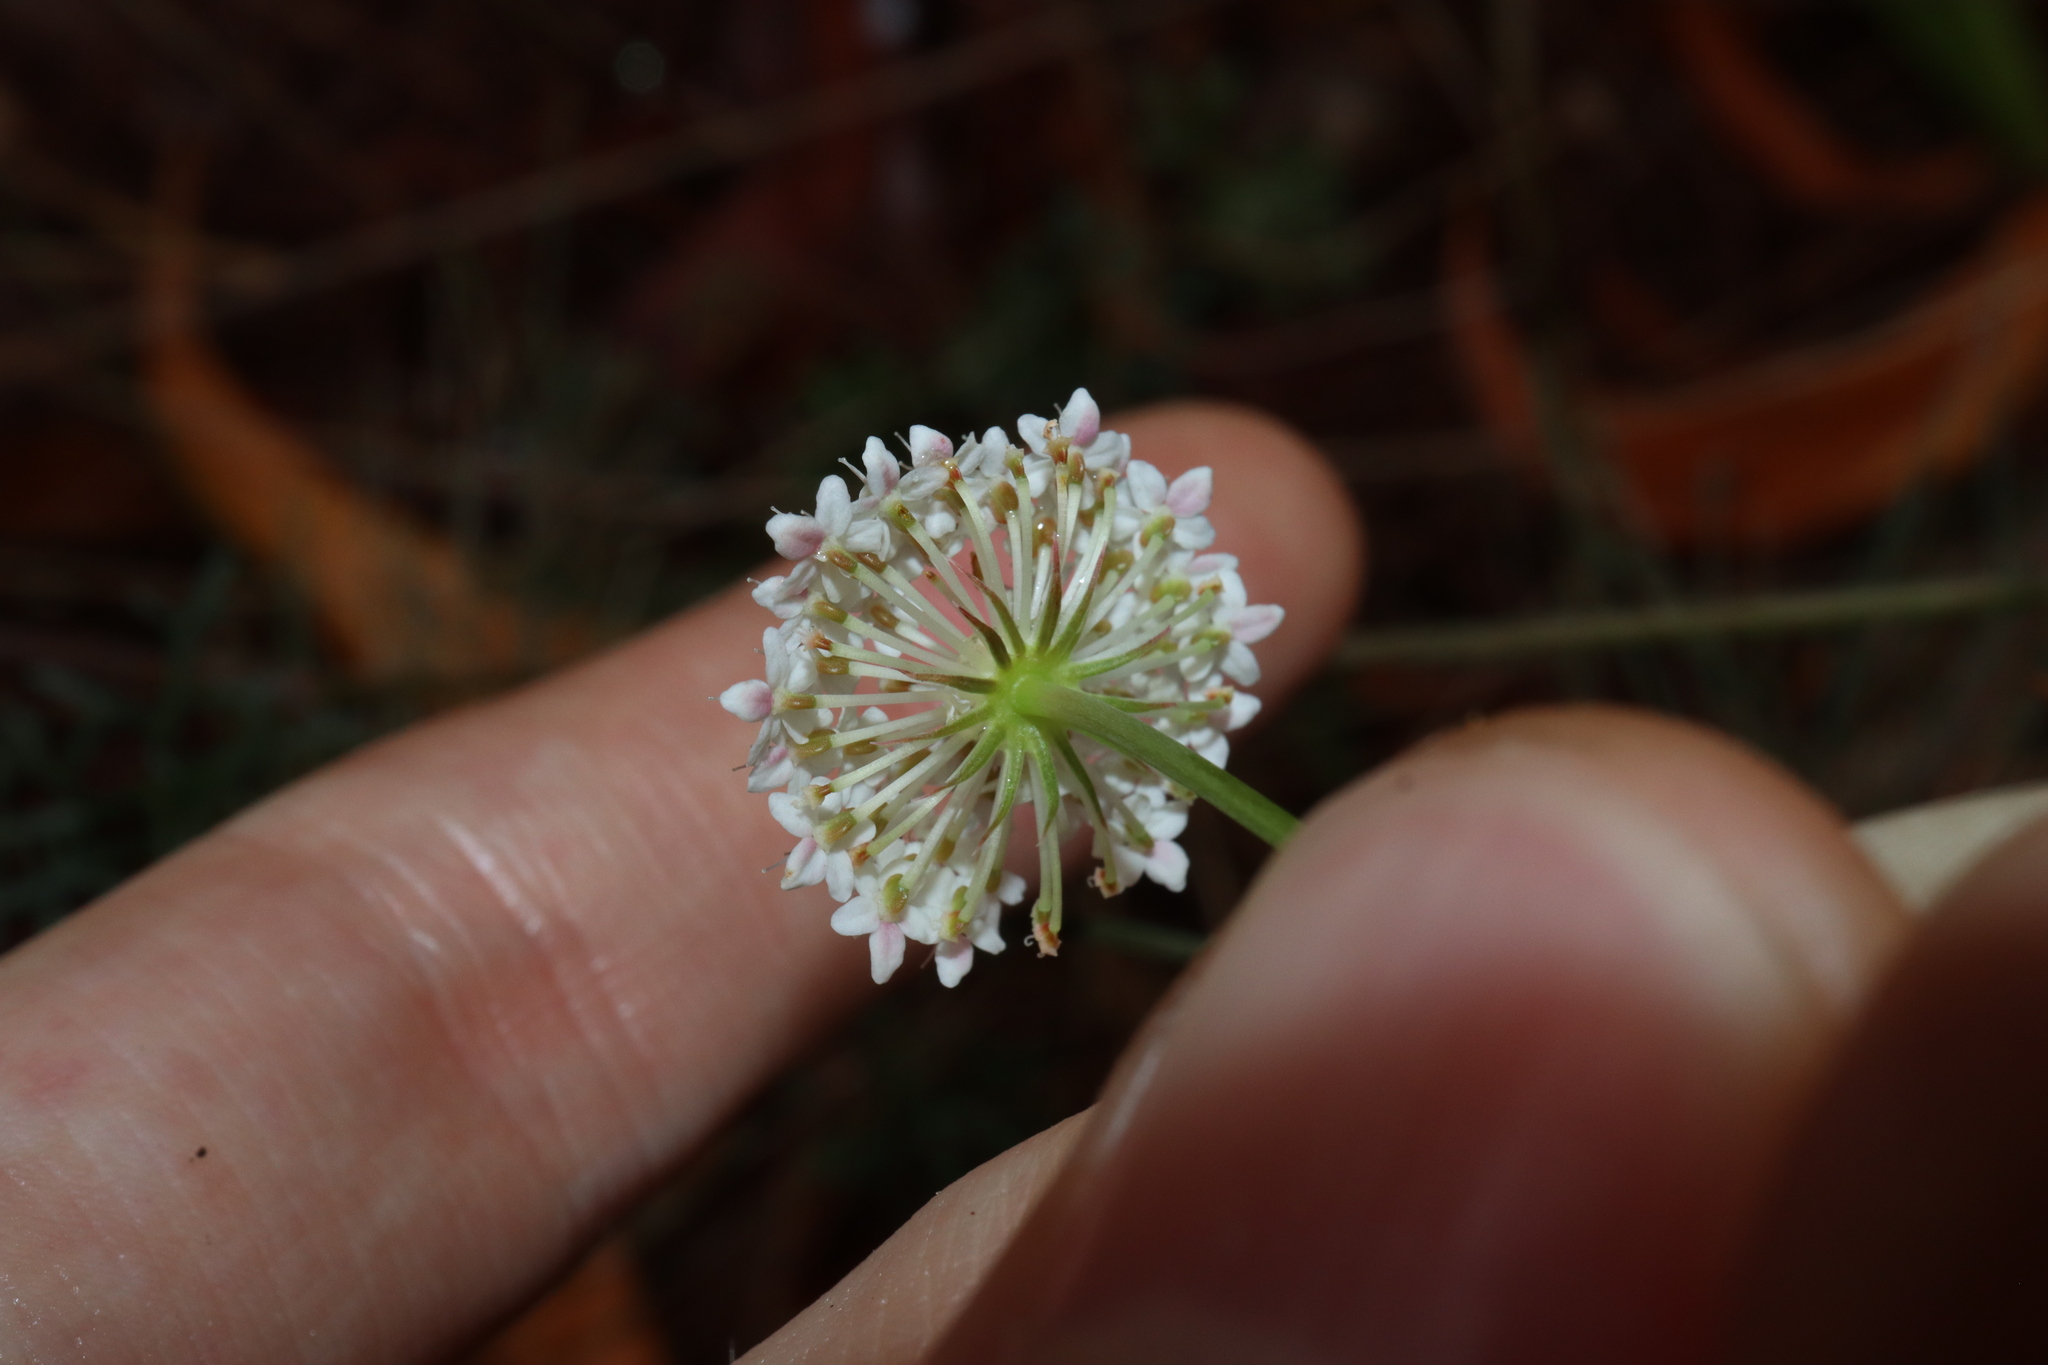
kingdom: Plantae
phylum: Tracheophyta
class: Magnoliopsida
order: Apiales
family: Araliaceae
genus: Trachymene
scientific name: Trachymene incisa
